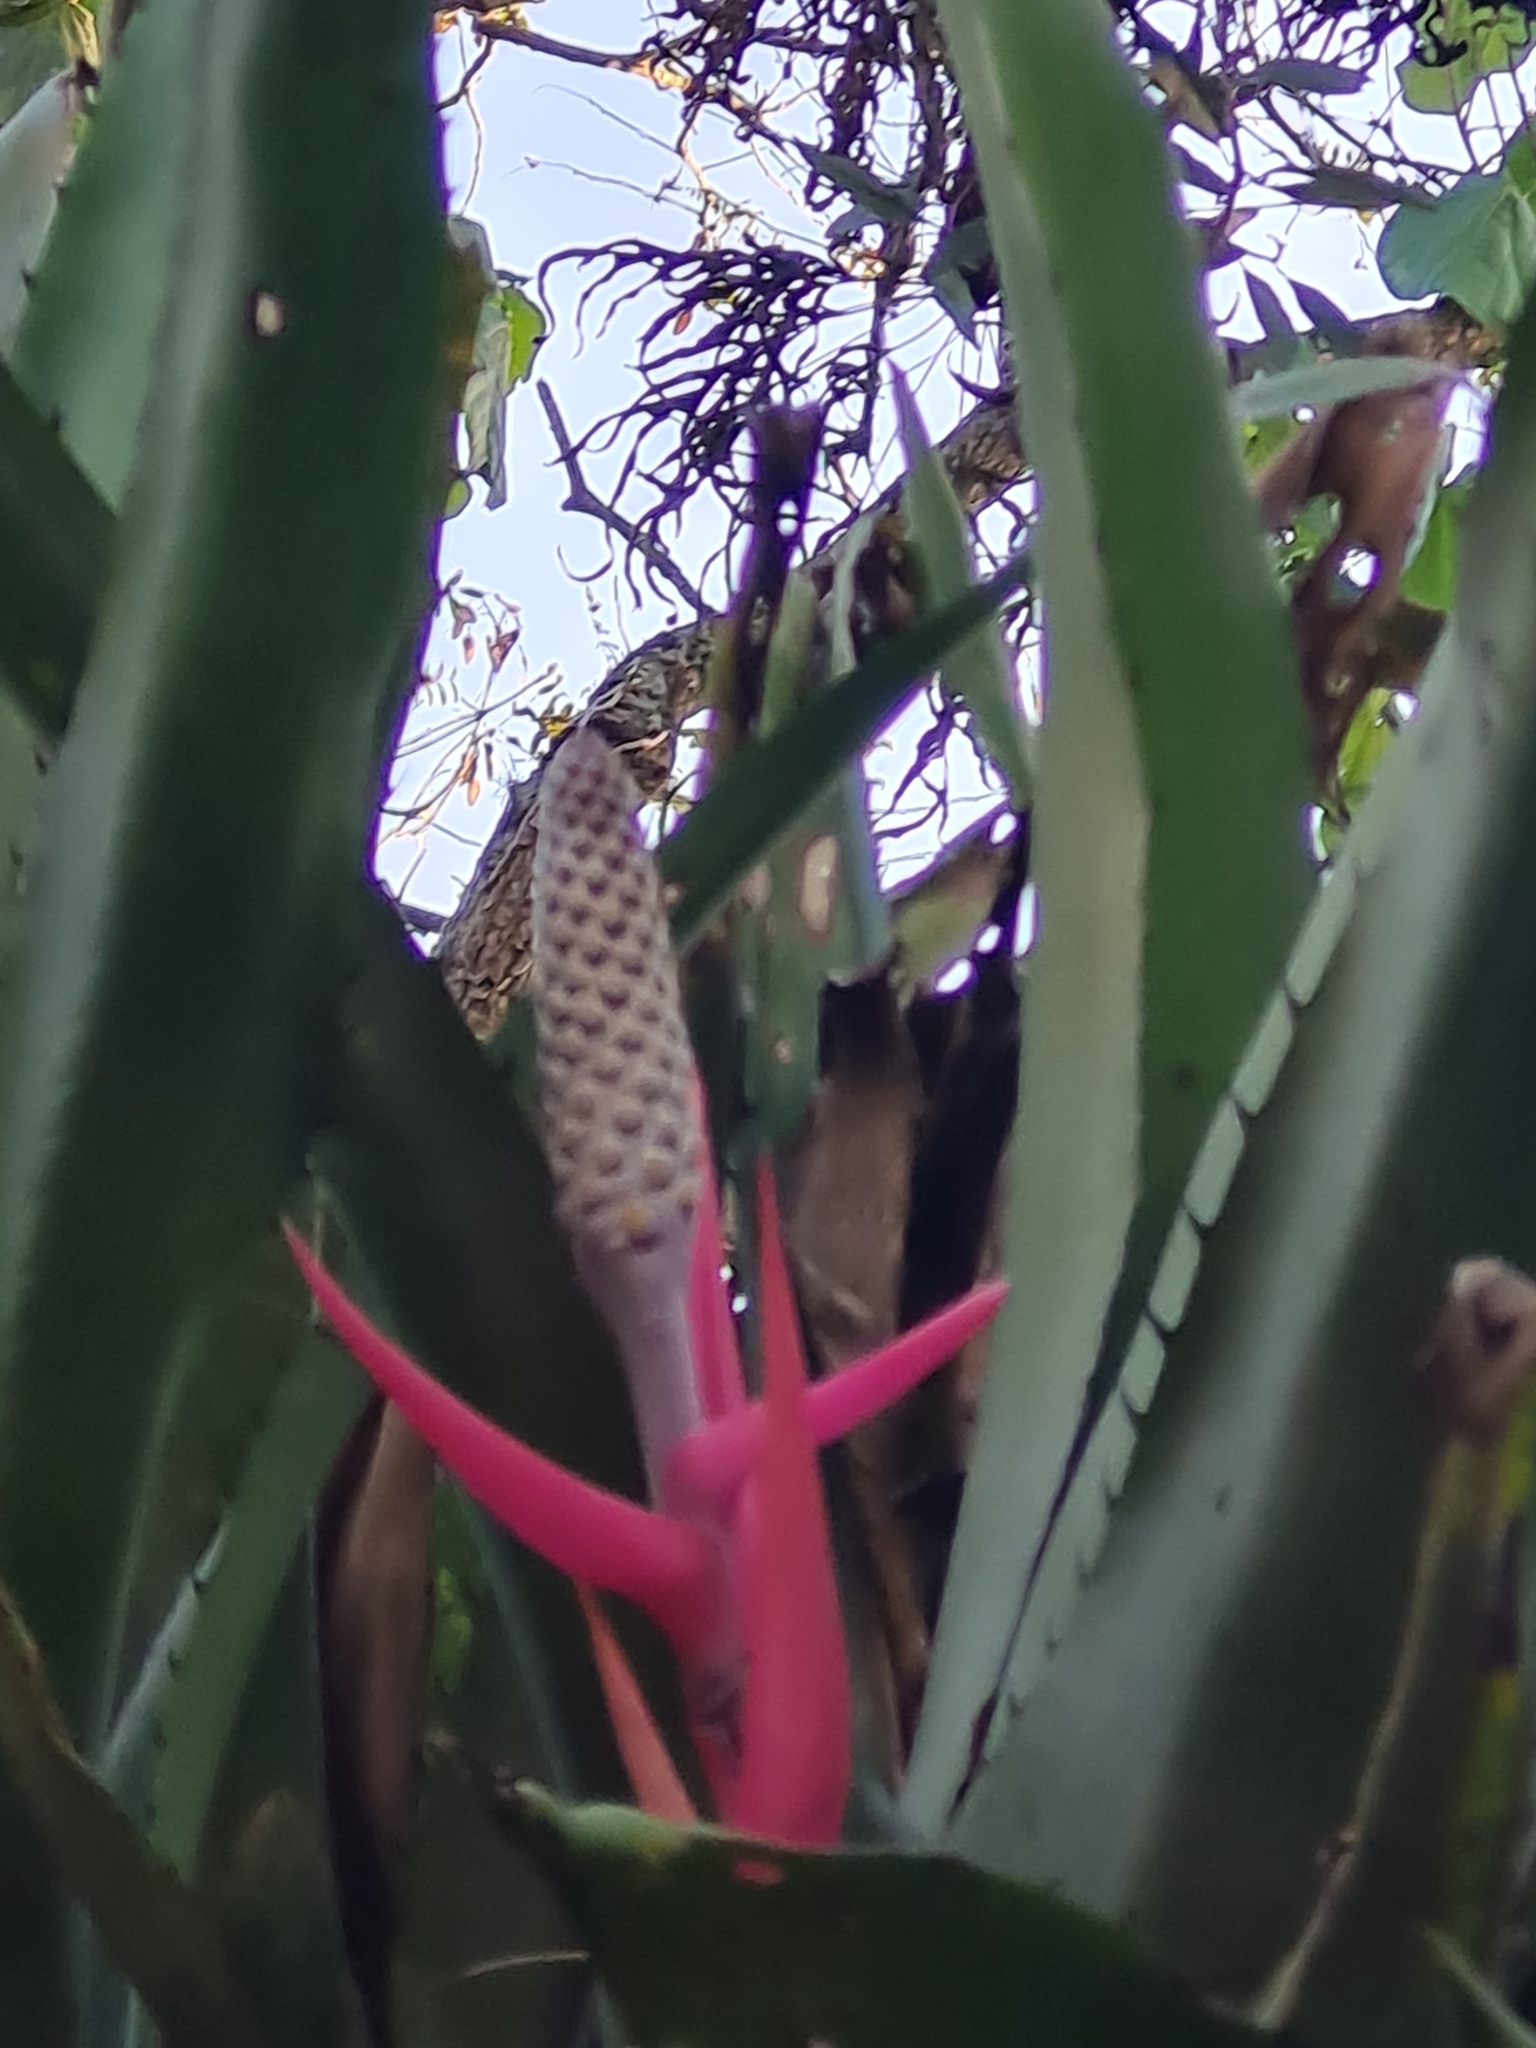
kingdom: Plantae
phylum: Tracheophyta
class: Liliopsida
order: Poales
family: Bromeliaceae
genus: Aechmea
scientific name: Aechmea bromeliifolia
